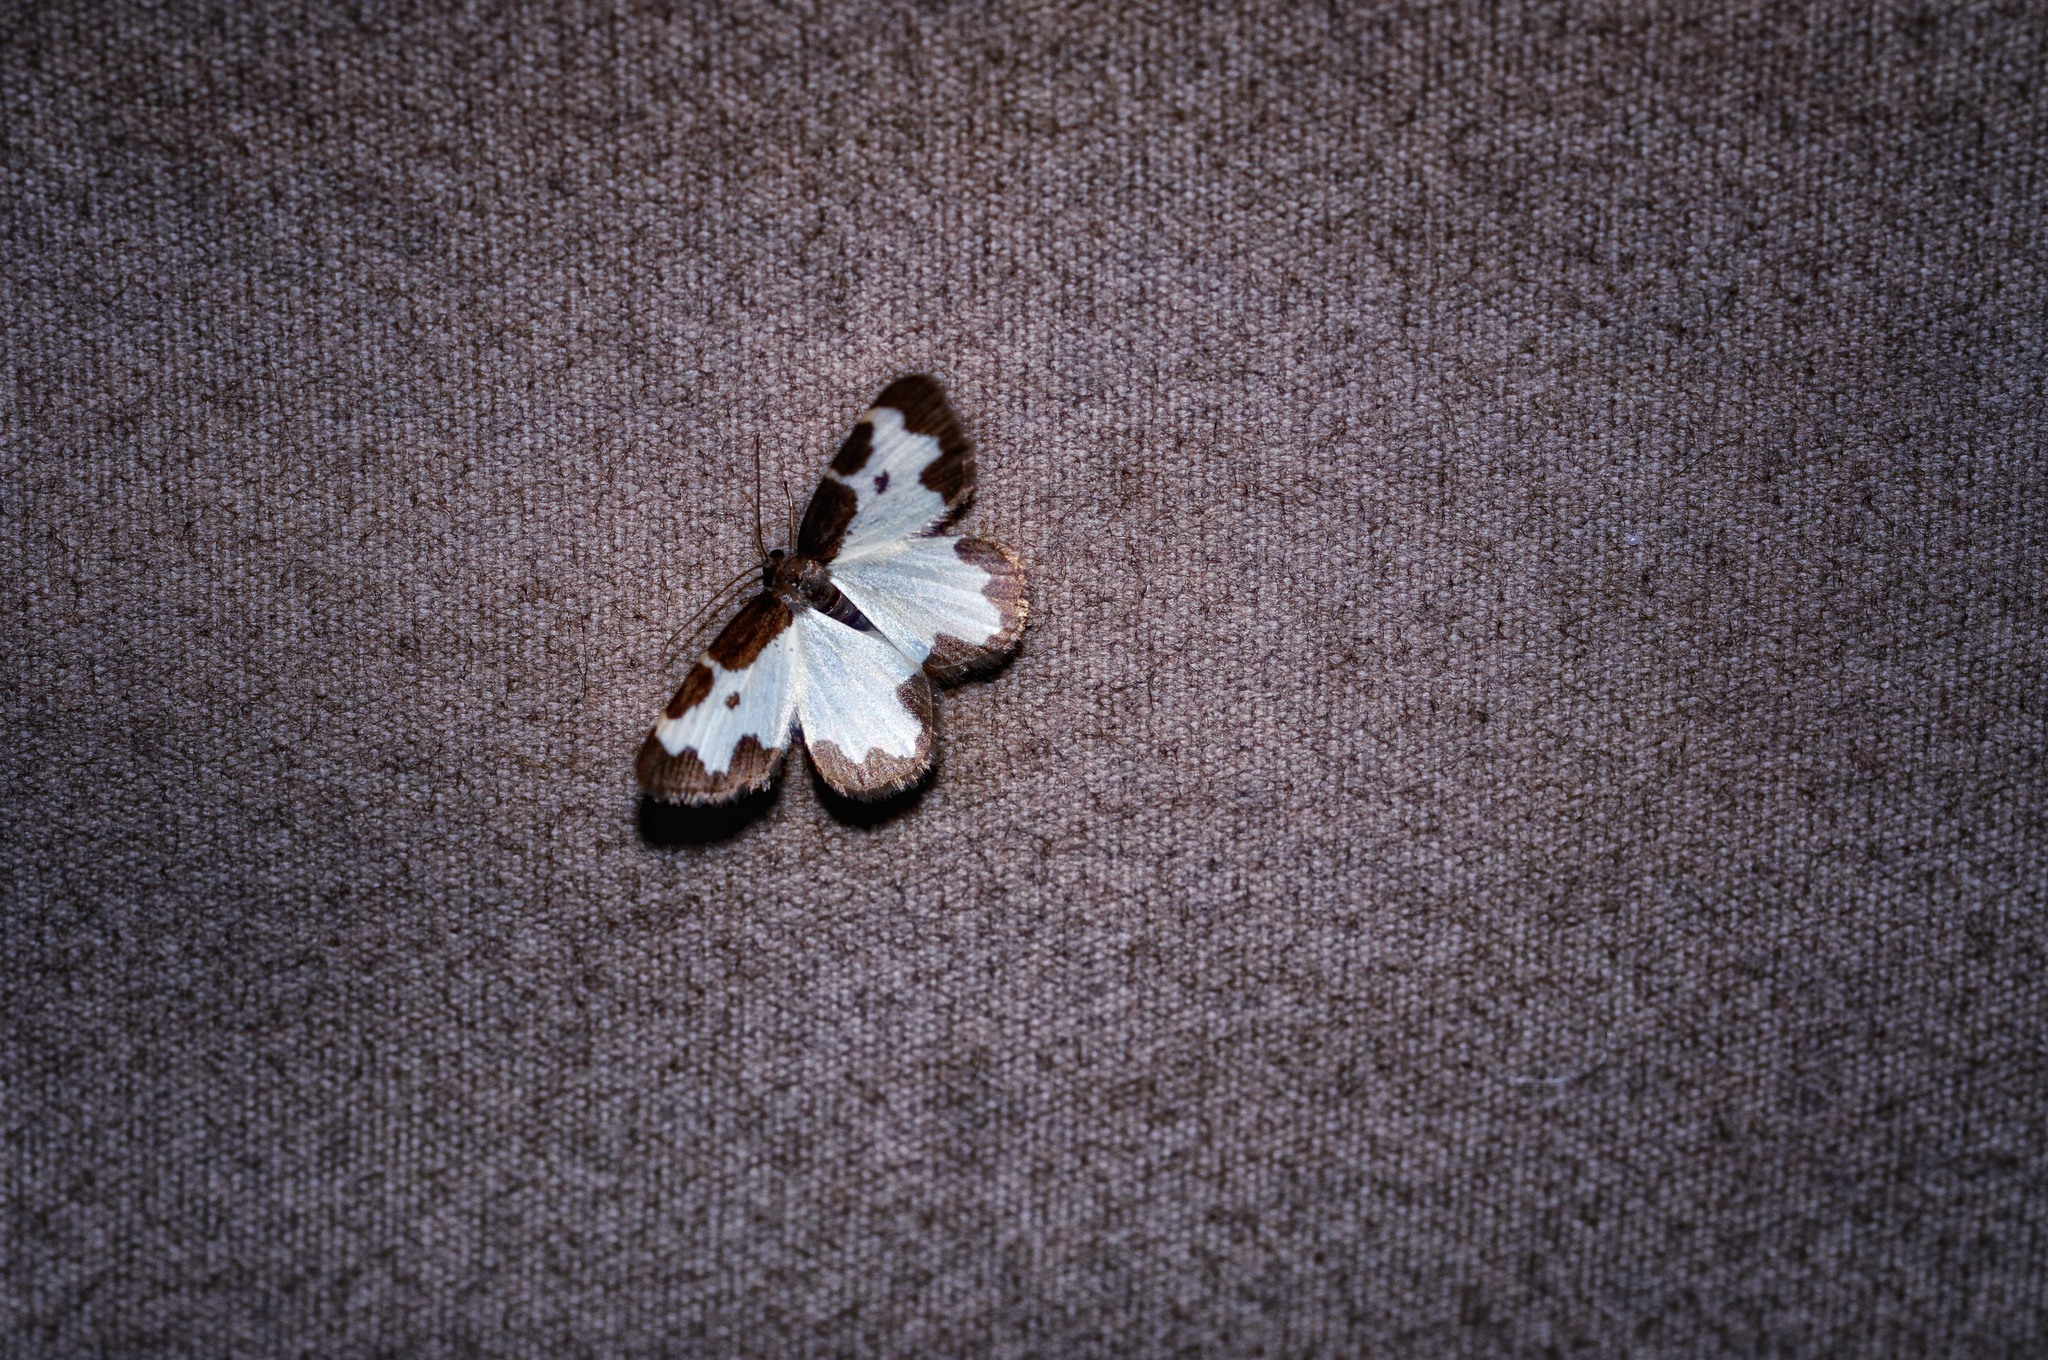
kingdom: Animalia
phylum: Arthropoda
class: Insecta
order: Lepidoptera
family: Geometridae
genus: Lomaspilis
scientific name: Lomaspilis marginata
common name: Clouded border
